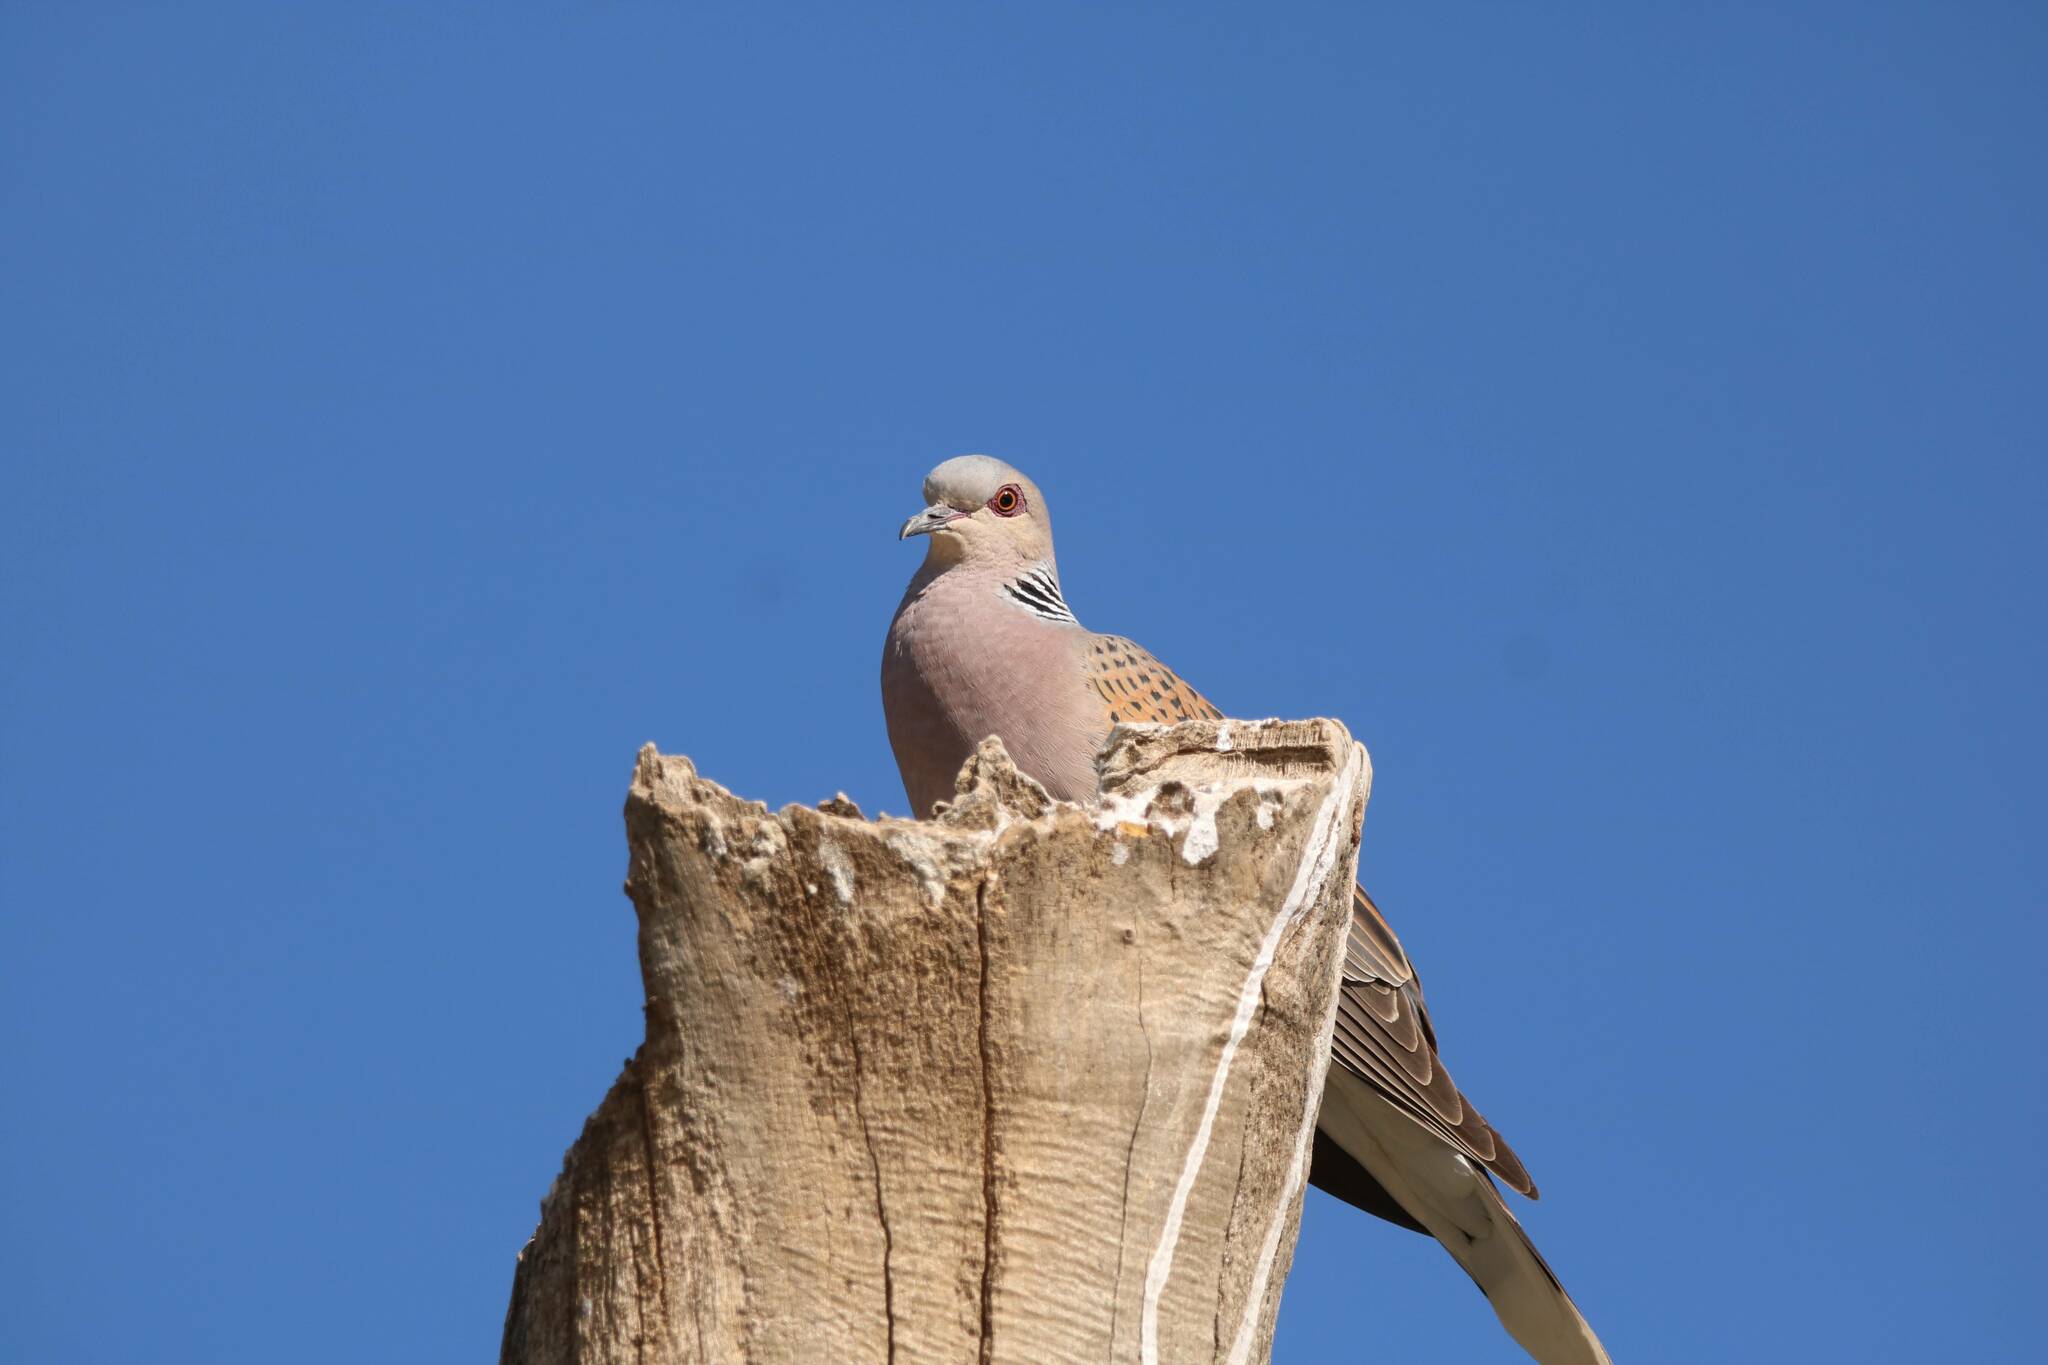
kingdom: Animalia
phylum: Chordata
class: Aves
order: Columbiformes
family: Columbidae
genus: Streptopelia
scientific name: Streptopelia turtur
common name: European turtle dove
